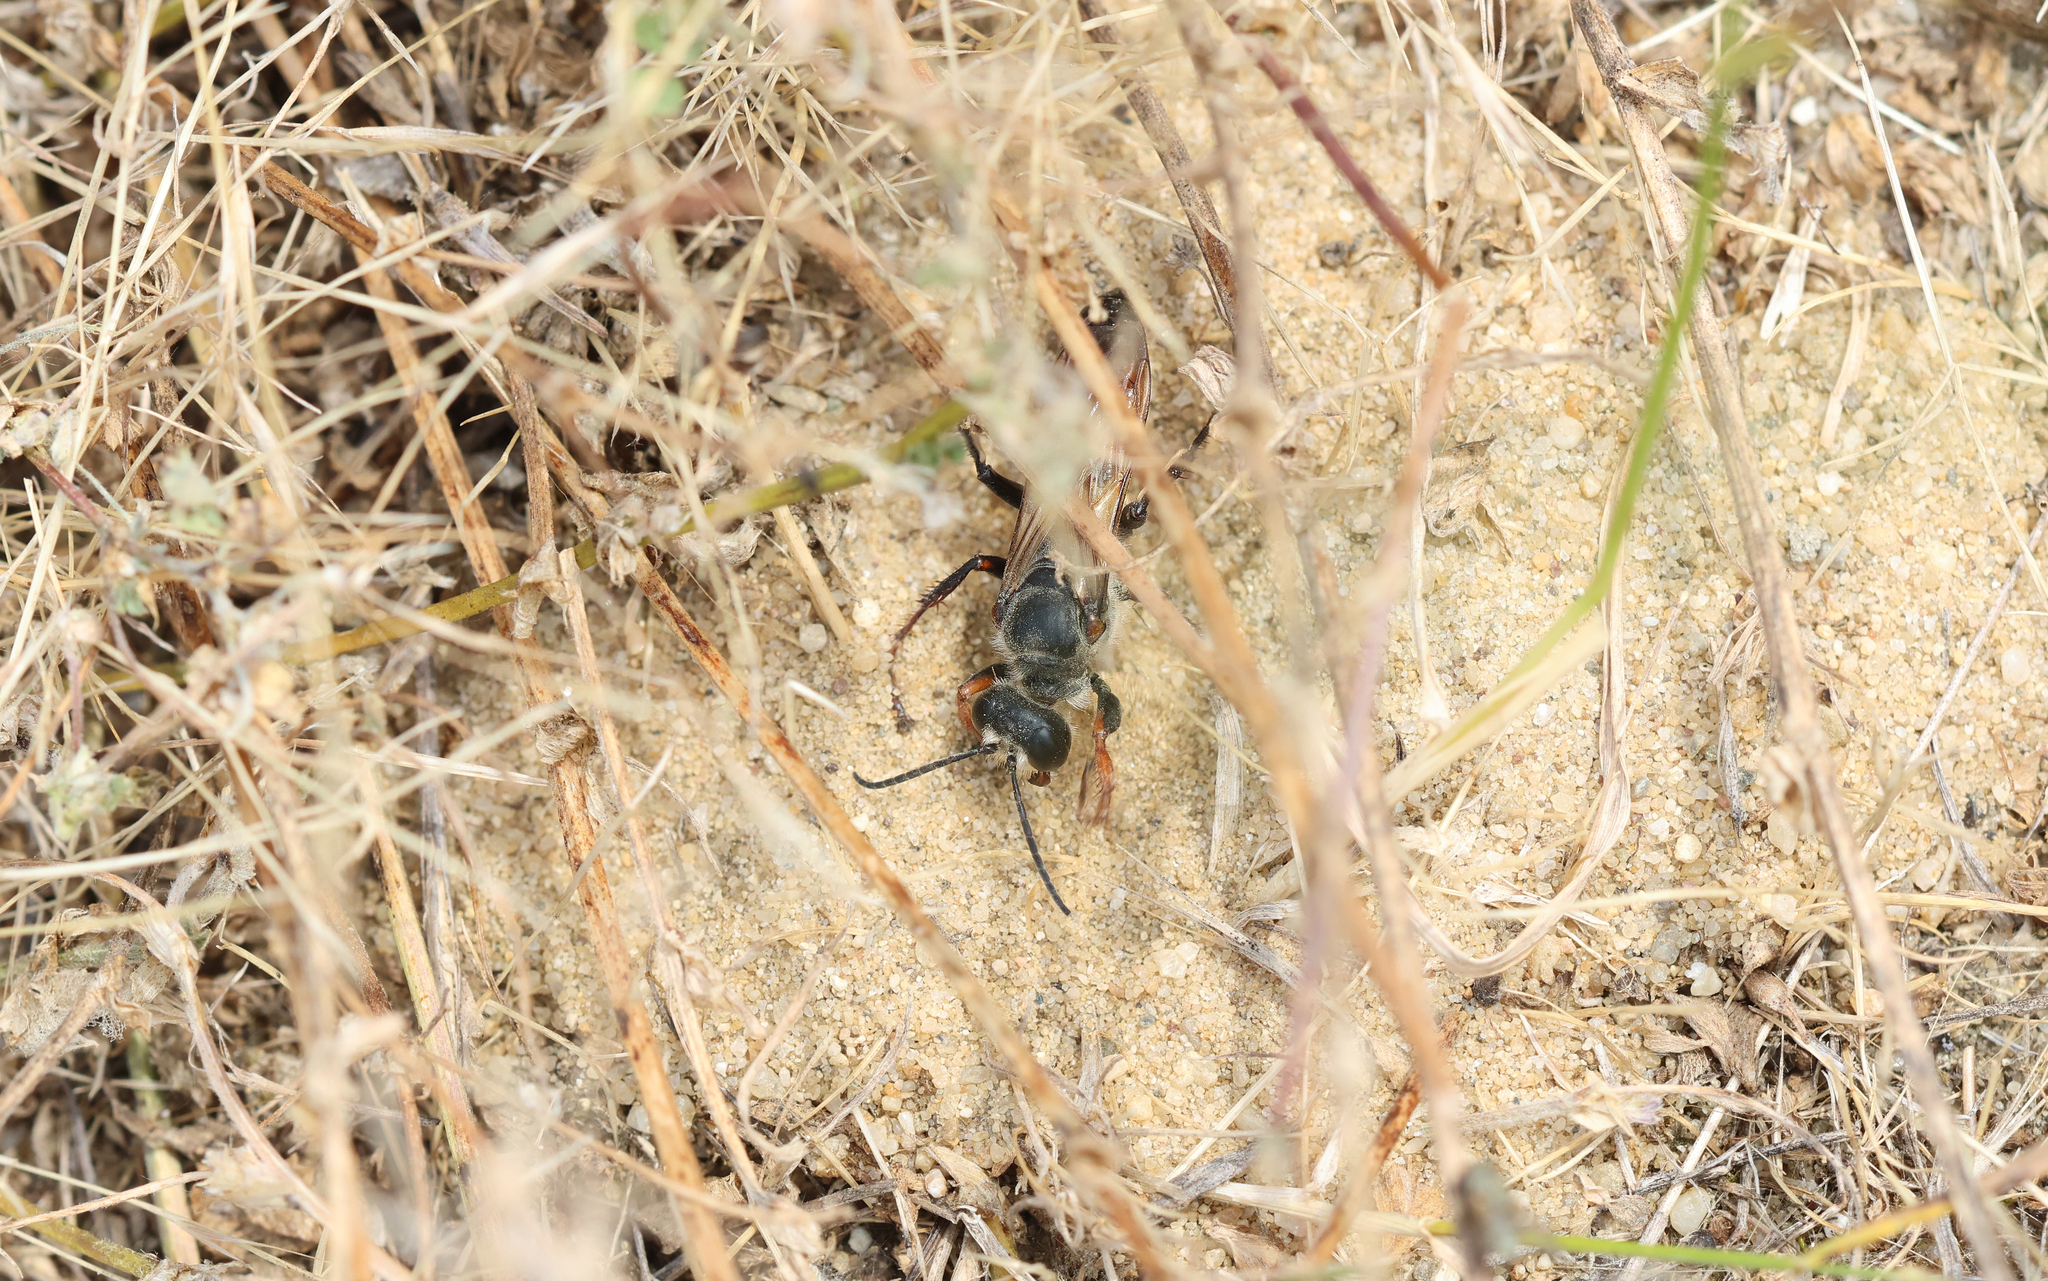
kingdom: Animalia
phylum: Arthropoda
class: Insecta
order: Hymenoptera
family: Sphecidae
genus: Sphex
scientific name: Sphex funerarius
